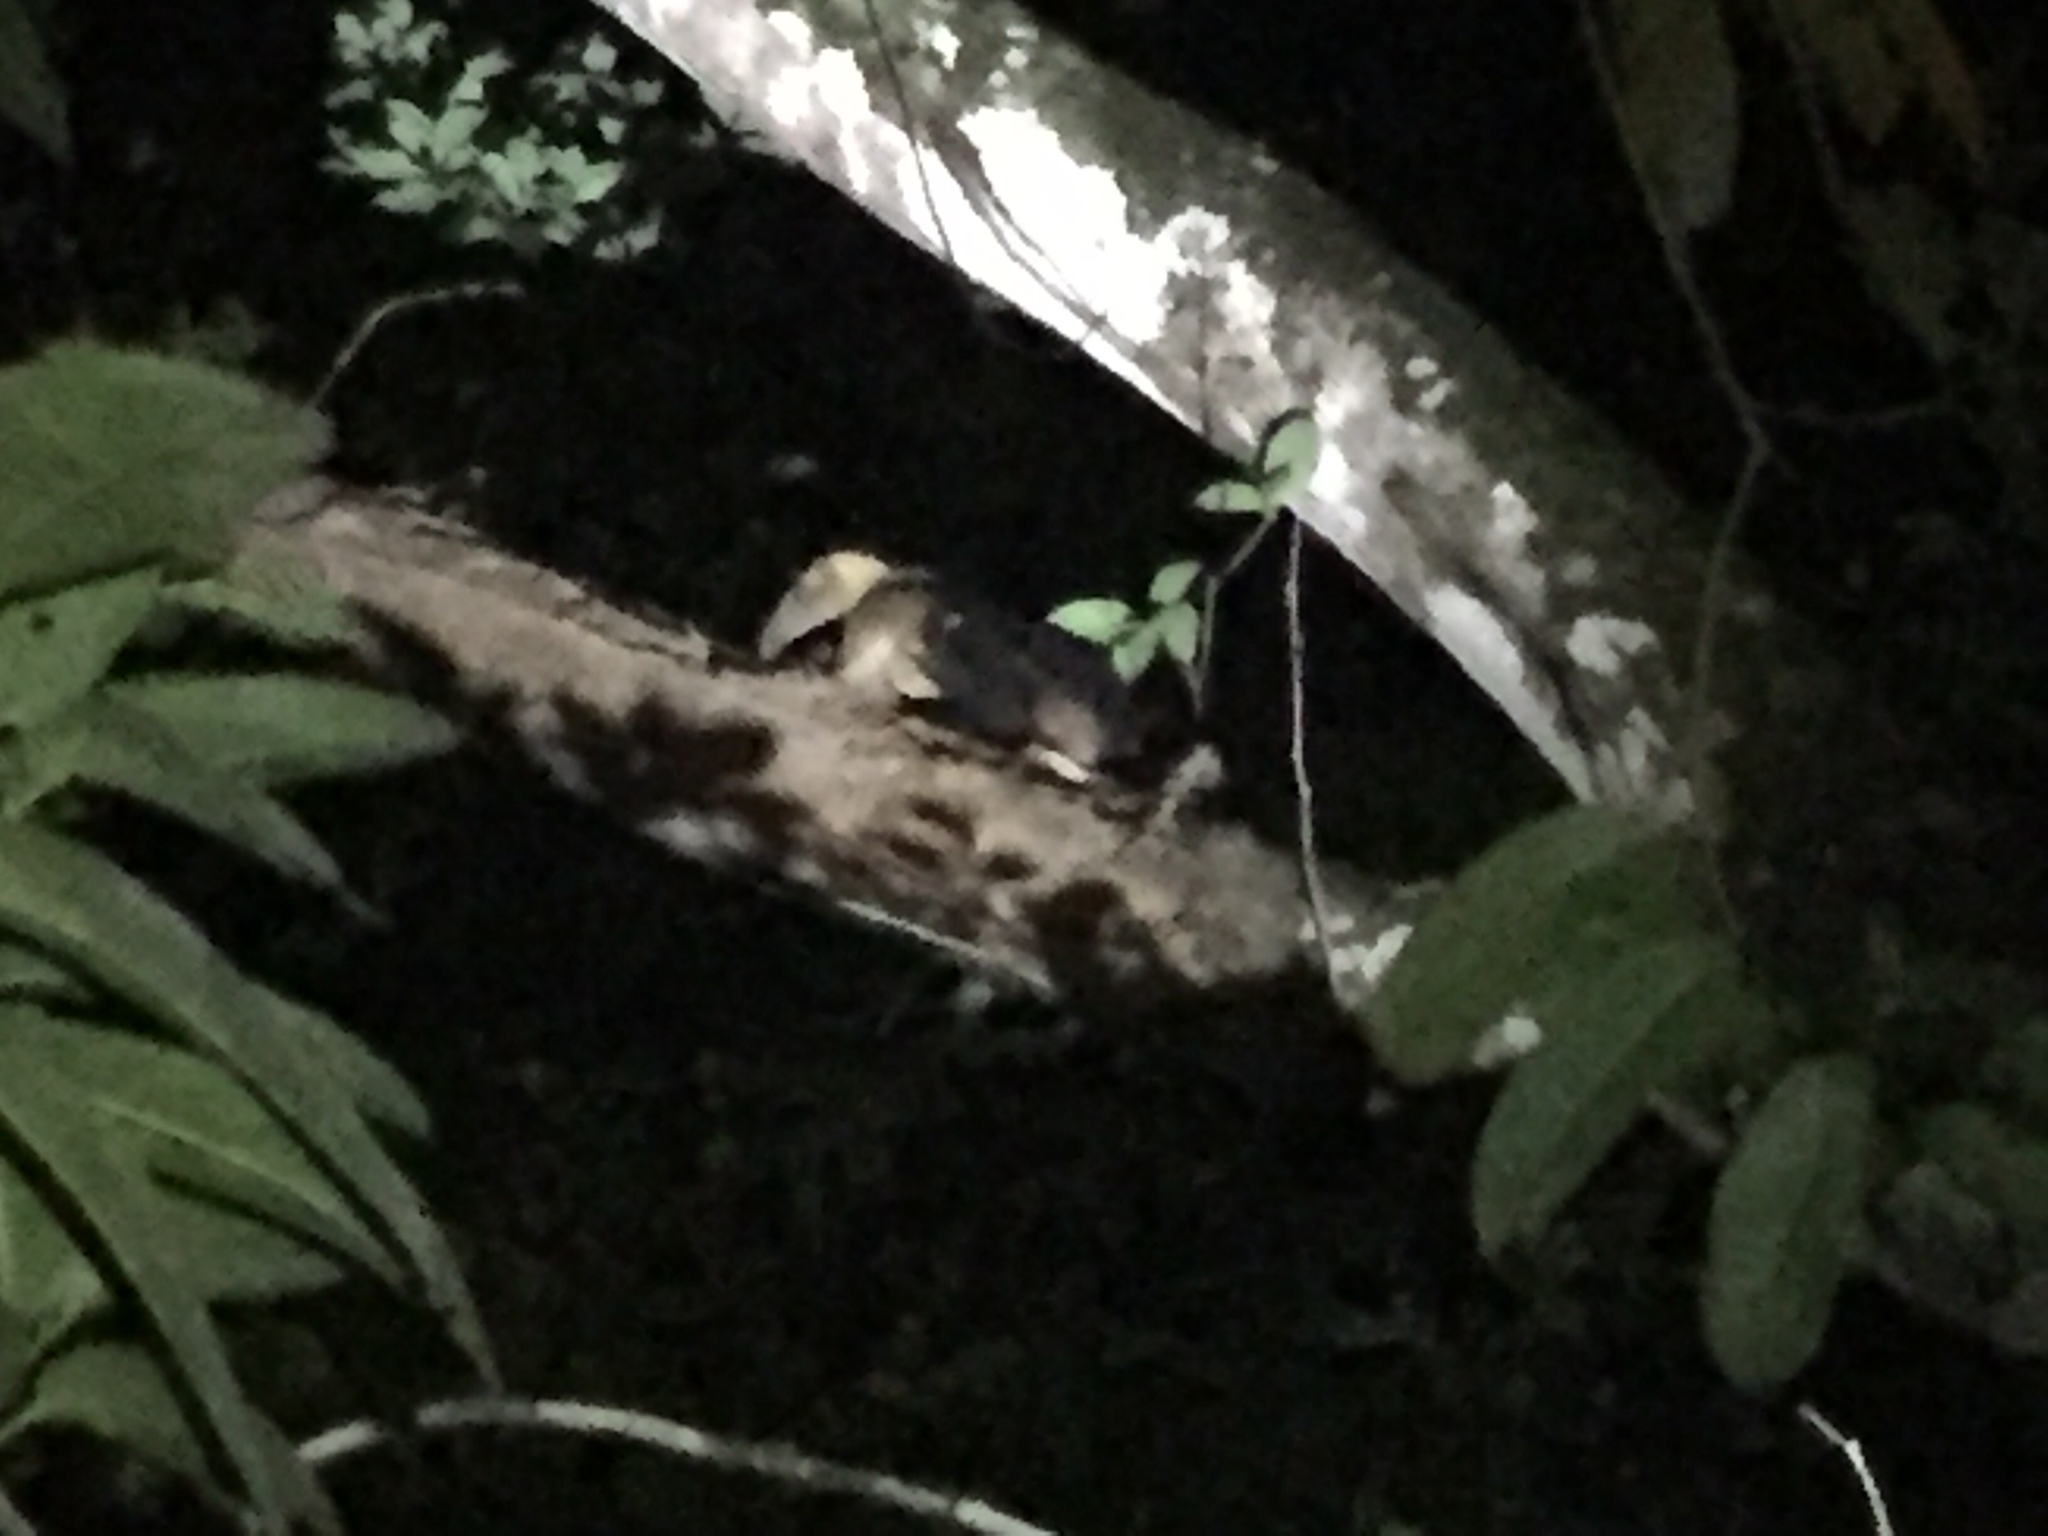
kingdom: Animalia
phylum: Chordata
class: Mammalia
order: Pilosa
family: Myrmecophagidae
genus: Tamandua
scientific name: Tamandua mexicana
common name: Northern tamandua
